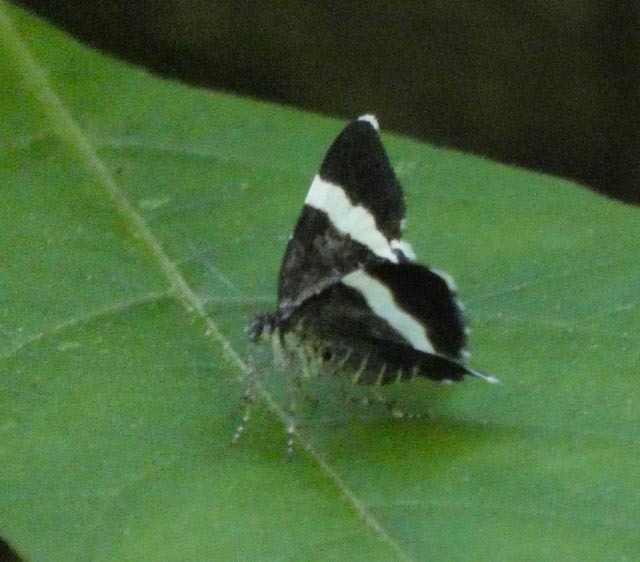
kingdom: Animalia
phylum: Arthropoda
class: Insecta
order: Lepidoptera
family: Geometridae
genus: Trichodezia
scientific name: Trichodezia albovittata
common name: White striped black
